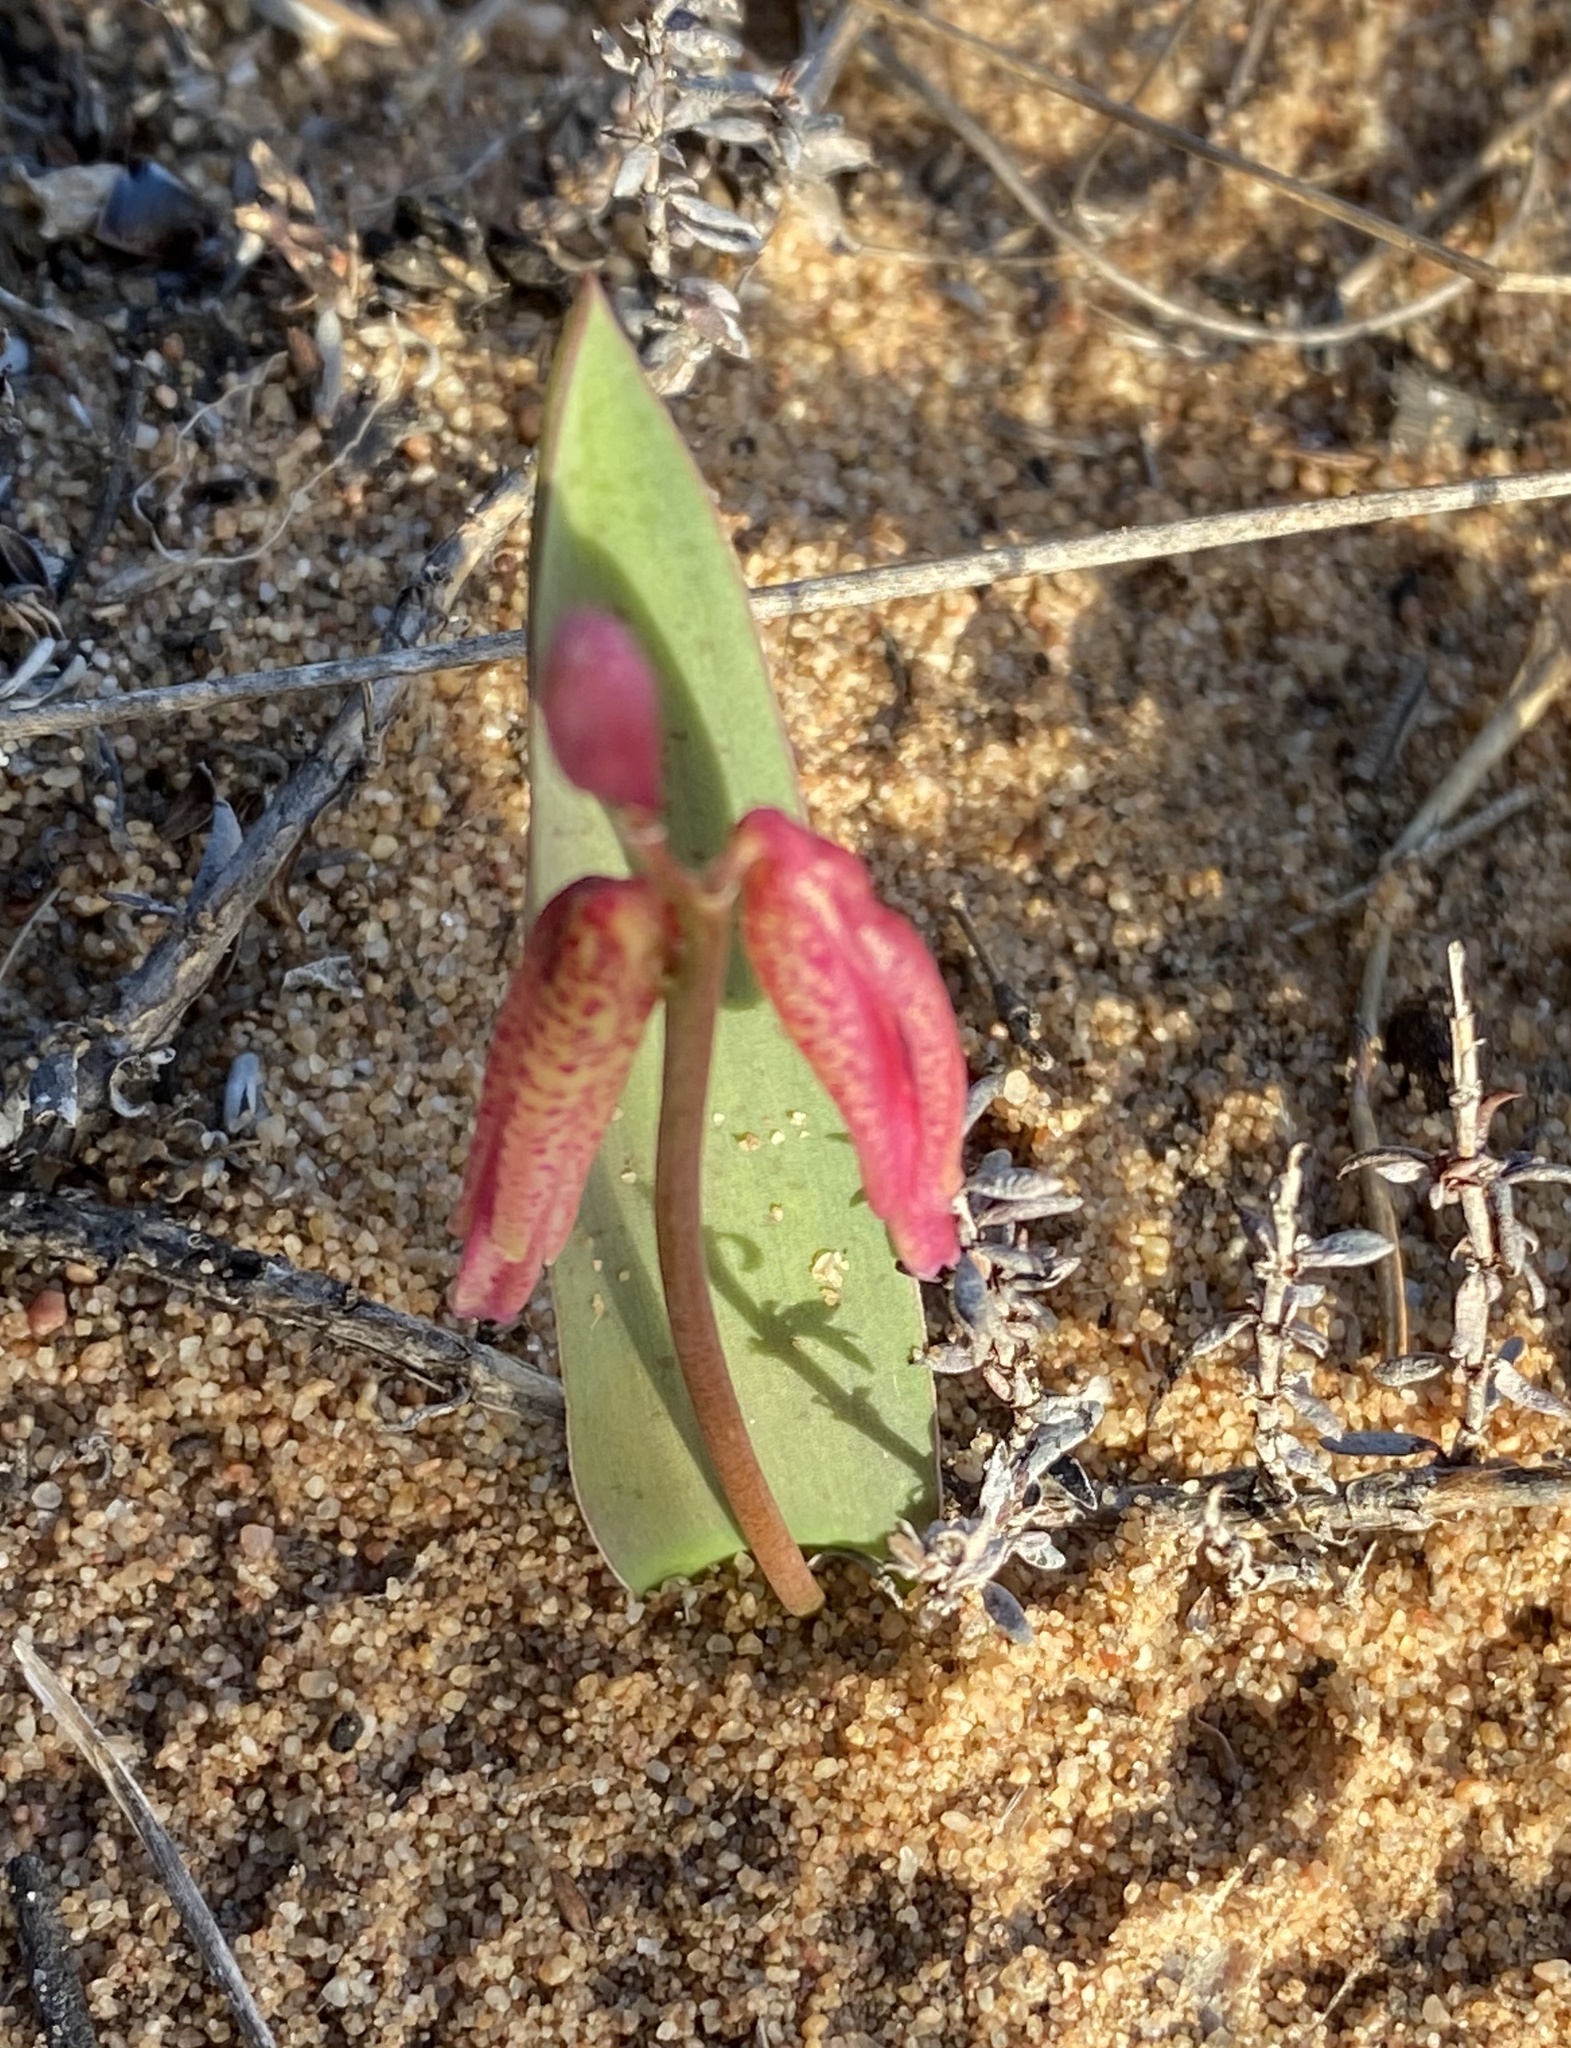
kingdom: Plantae
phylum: Tracheophyta
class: Liliopsida
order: Asparagales
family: Asparagaceae
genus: Lachenalia
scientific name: Lachenalia punctata
